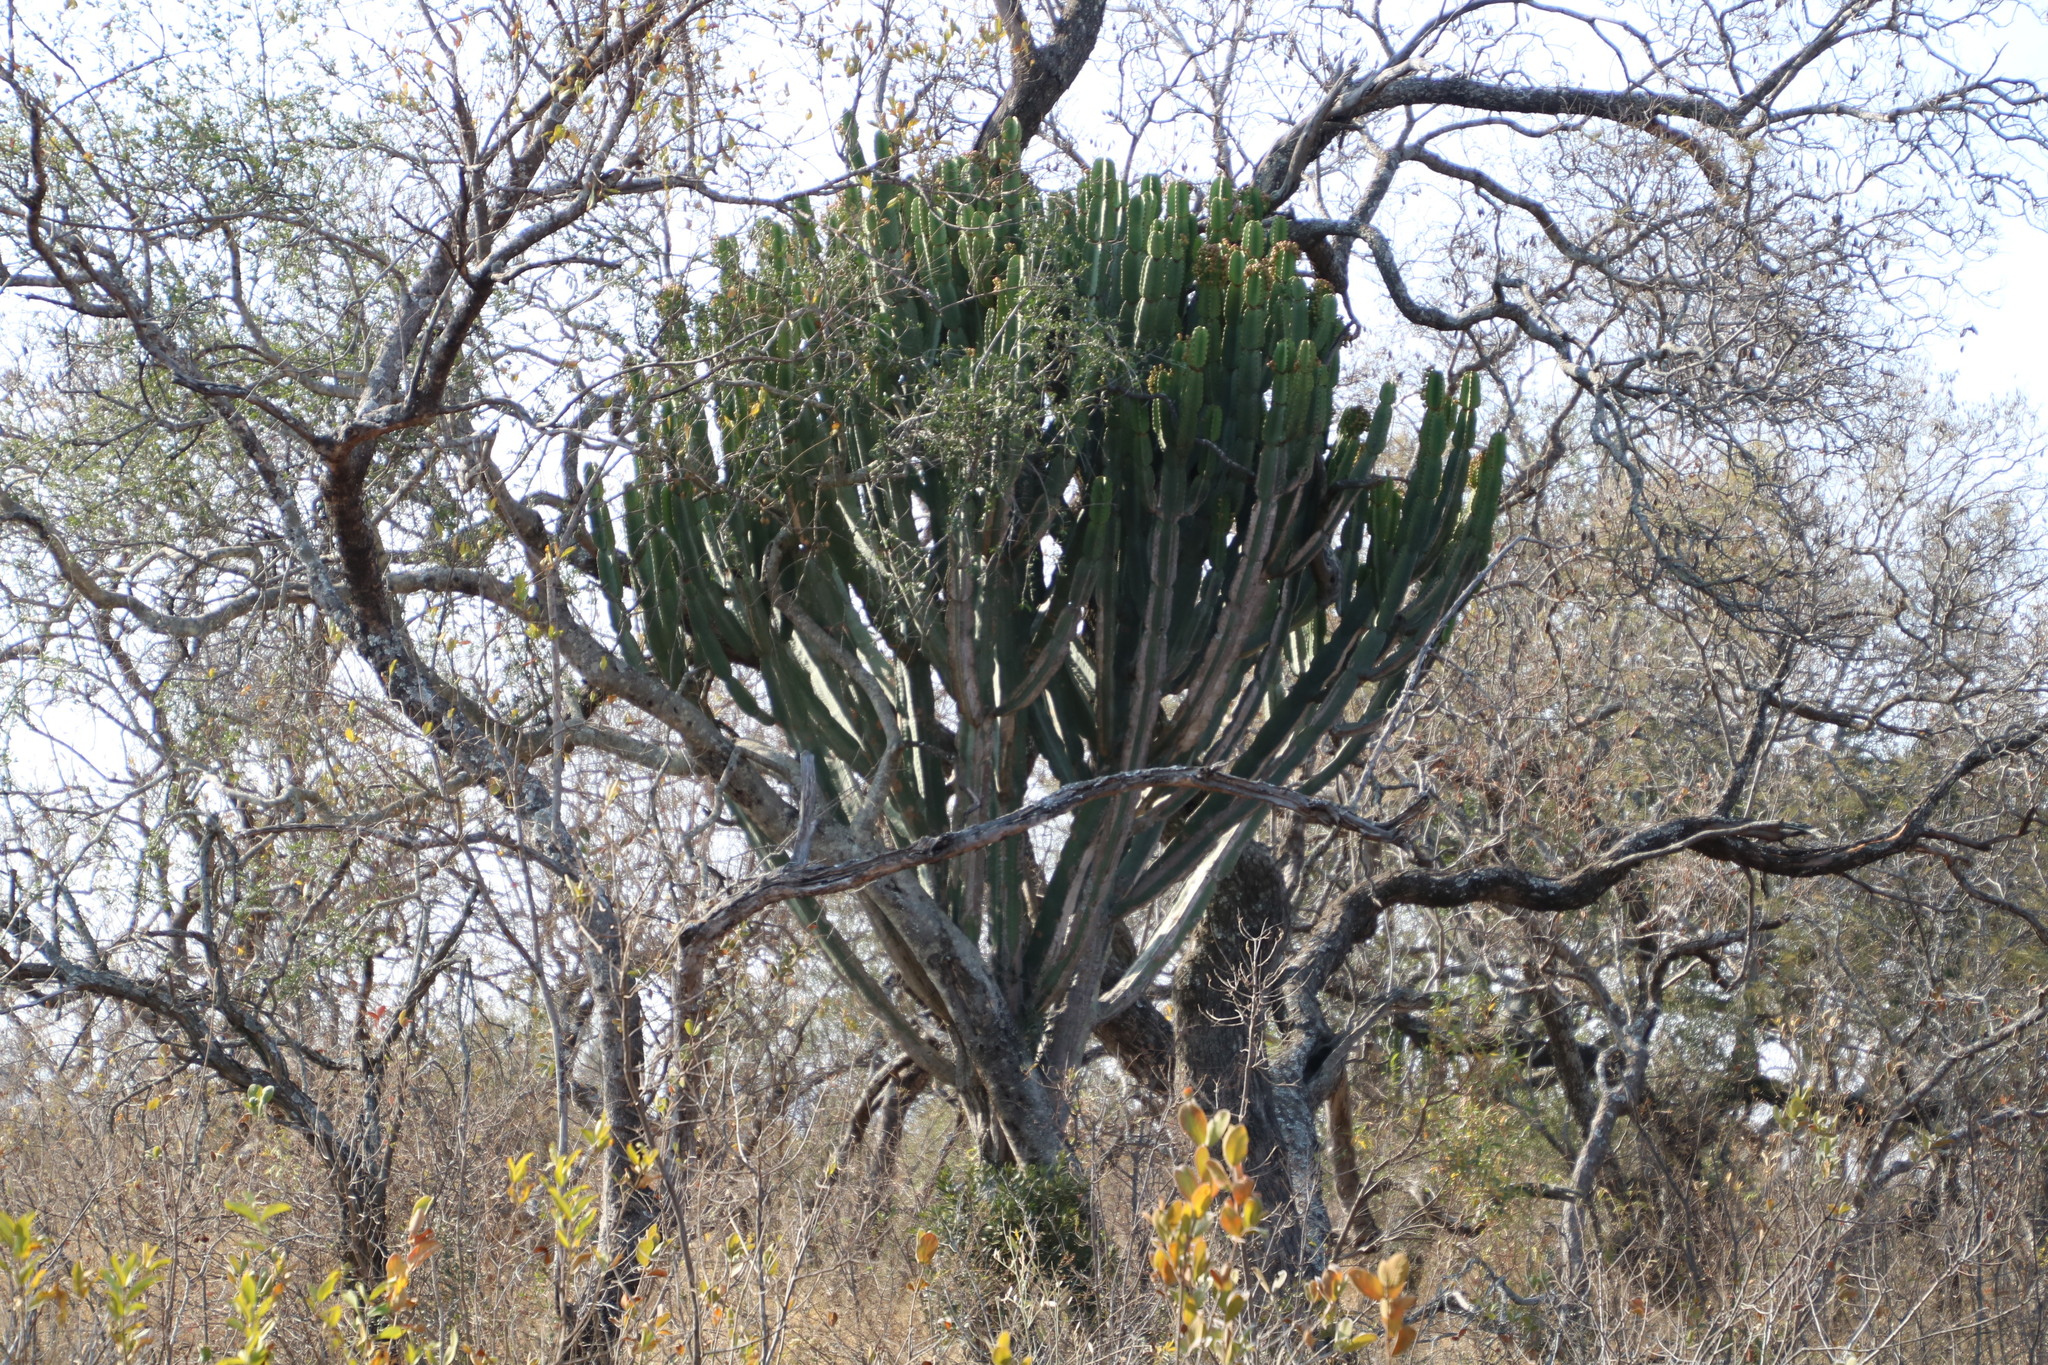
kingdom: Plantae
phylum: Tracheophyta
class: Magnoliopsida
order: Malpighiales
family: Euphorbiaceae
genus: Euphorbia
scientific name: Euphorbia ingens
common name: Cactus spurge
